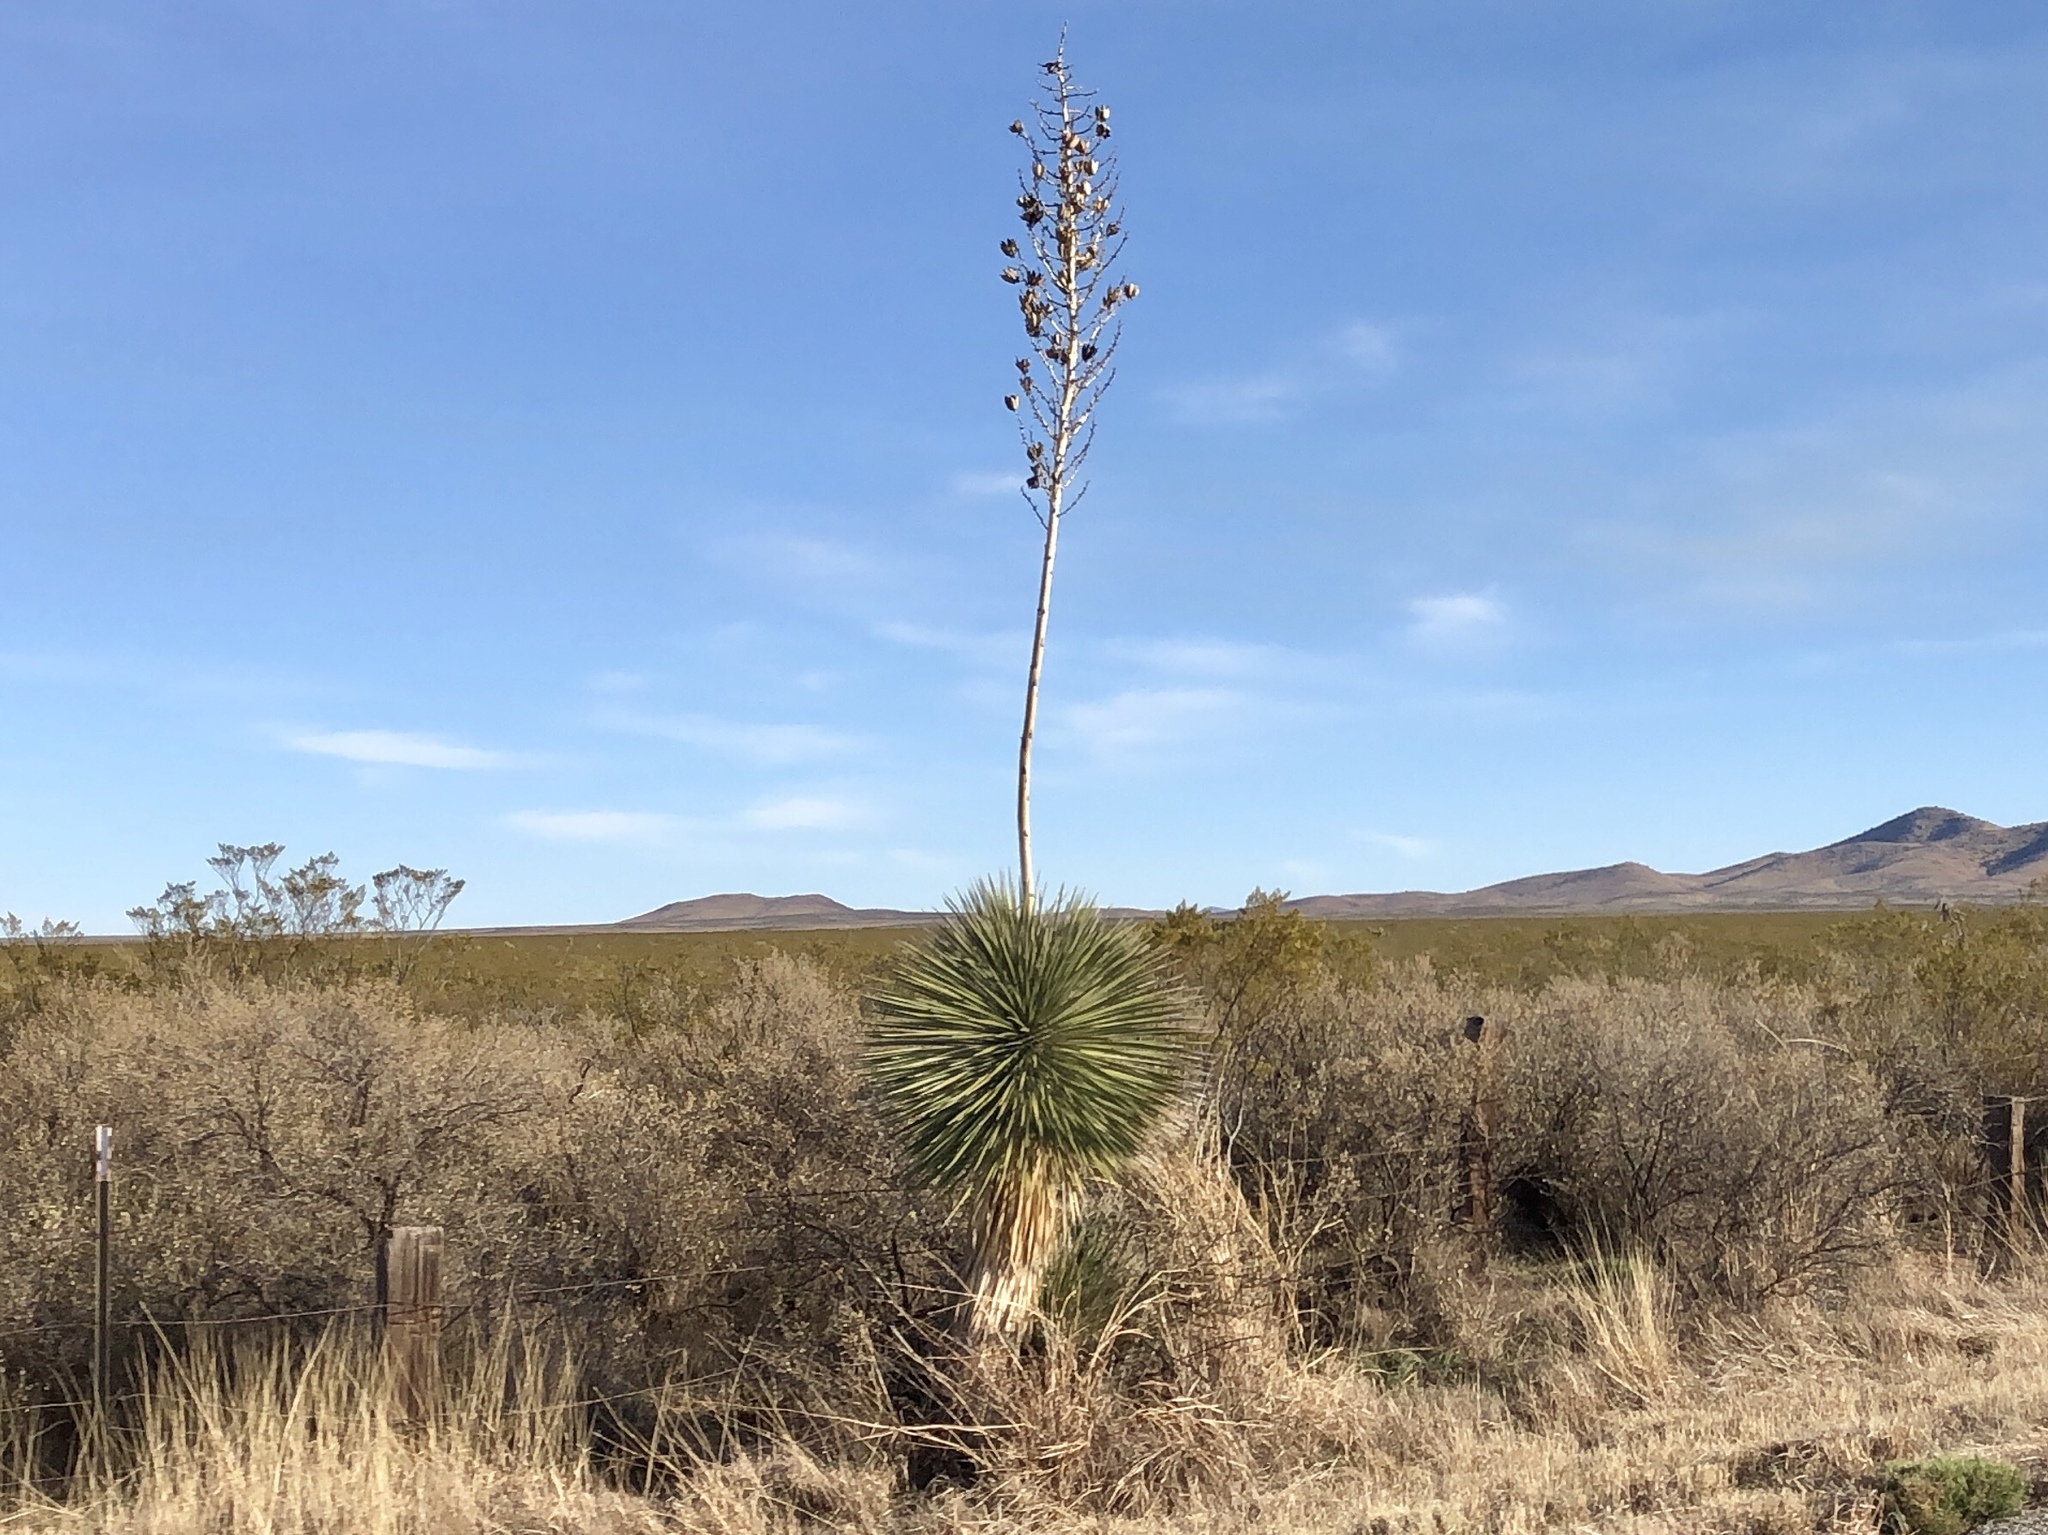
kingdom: Plantae
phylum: Tracheophyta
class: Liliopsida
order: Asparagales
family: Asparagaceae
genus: Yucca
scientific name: Yucca elata
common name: Palmella
